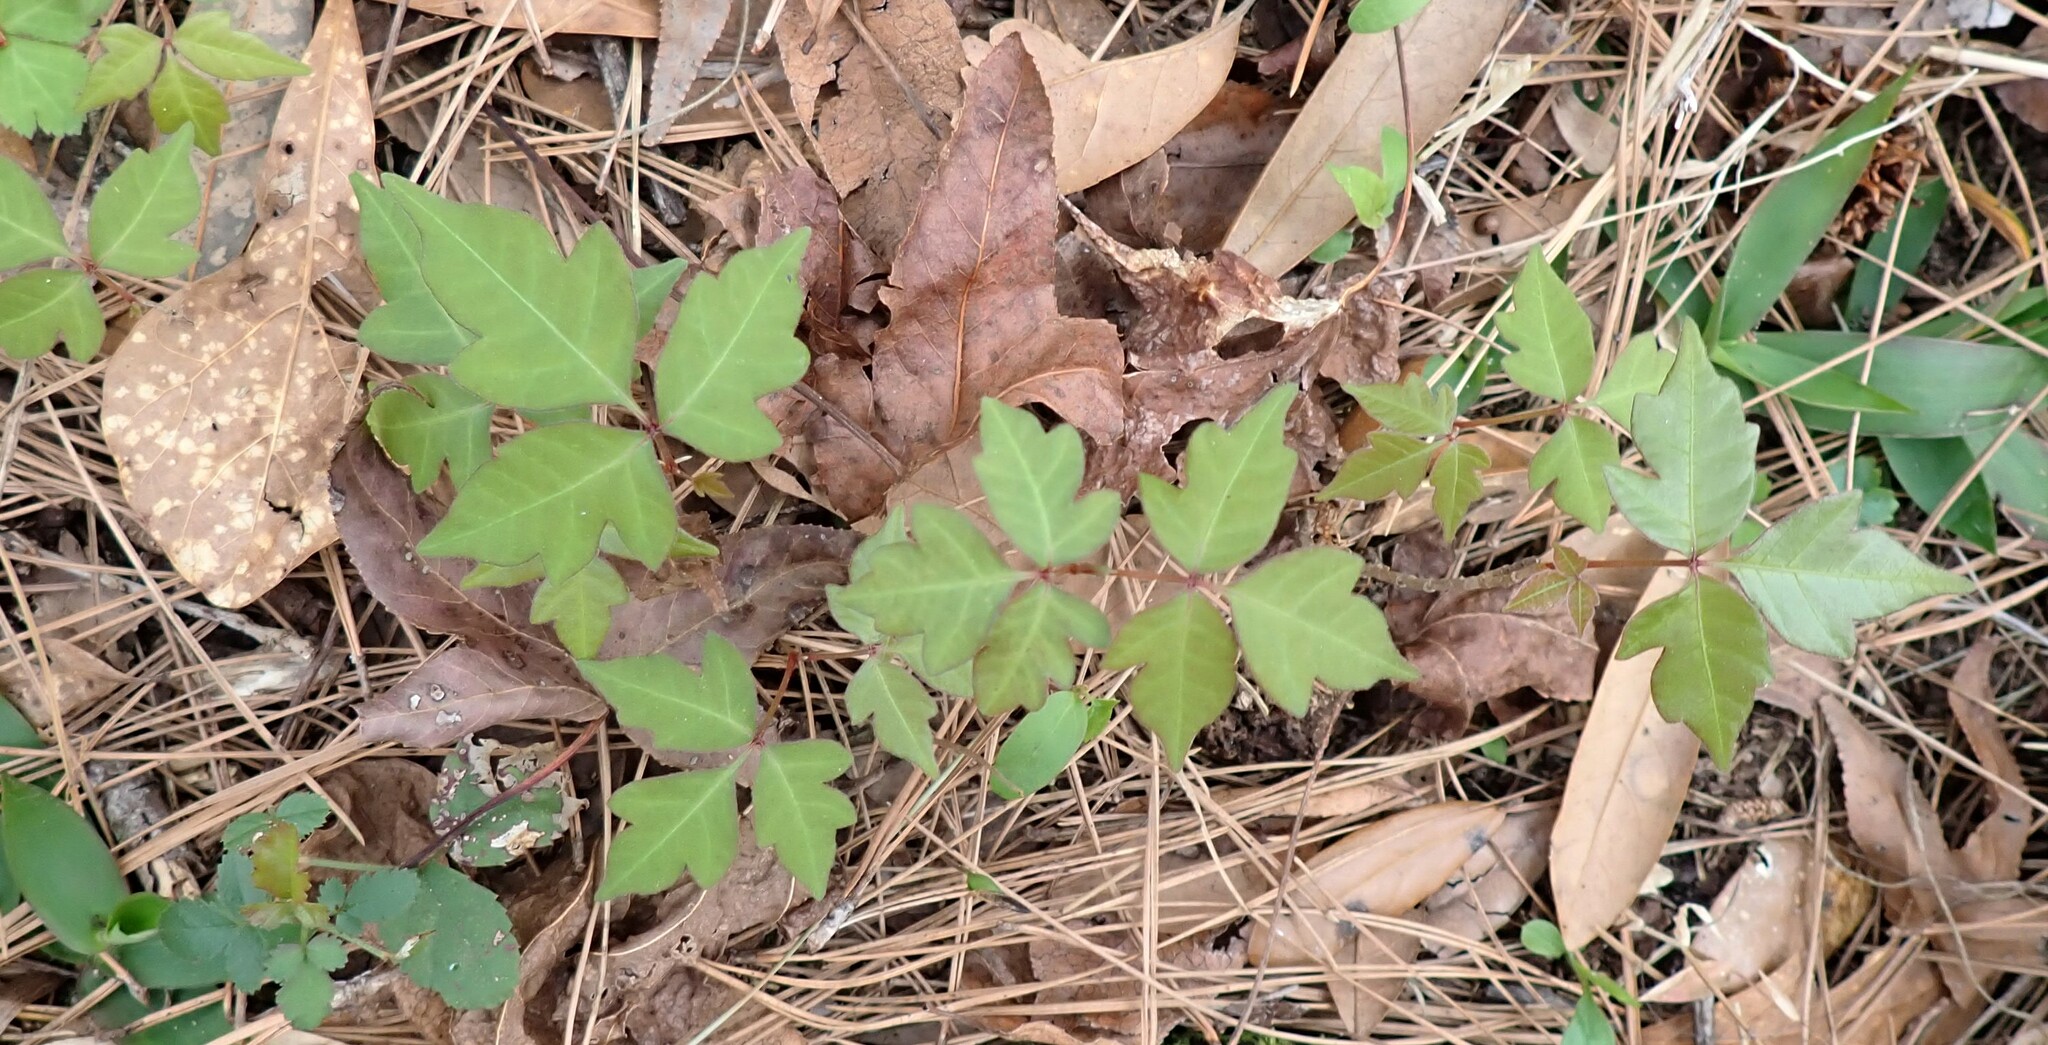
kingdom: Plantae
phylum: Tracheophyta
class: Magnoliopsida
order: Sapindales
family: Anacardiaceae
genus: Toxicodendron
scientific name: Toxicodendron radicans
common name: Poison ivy
